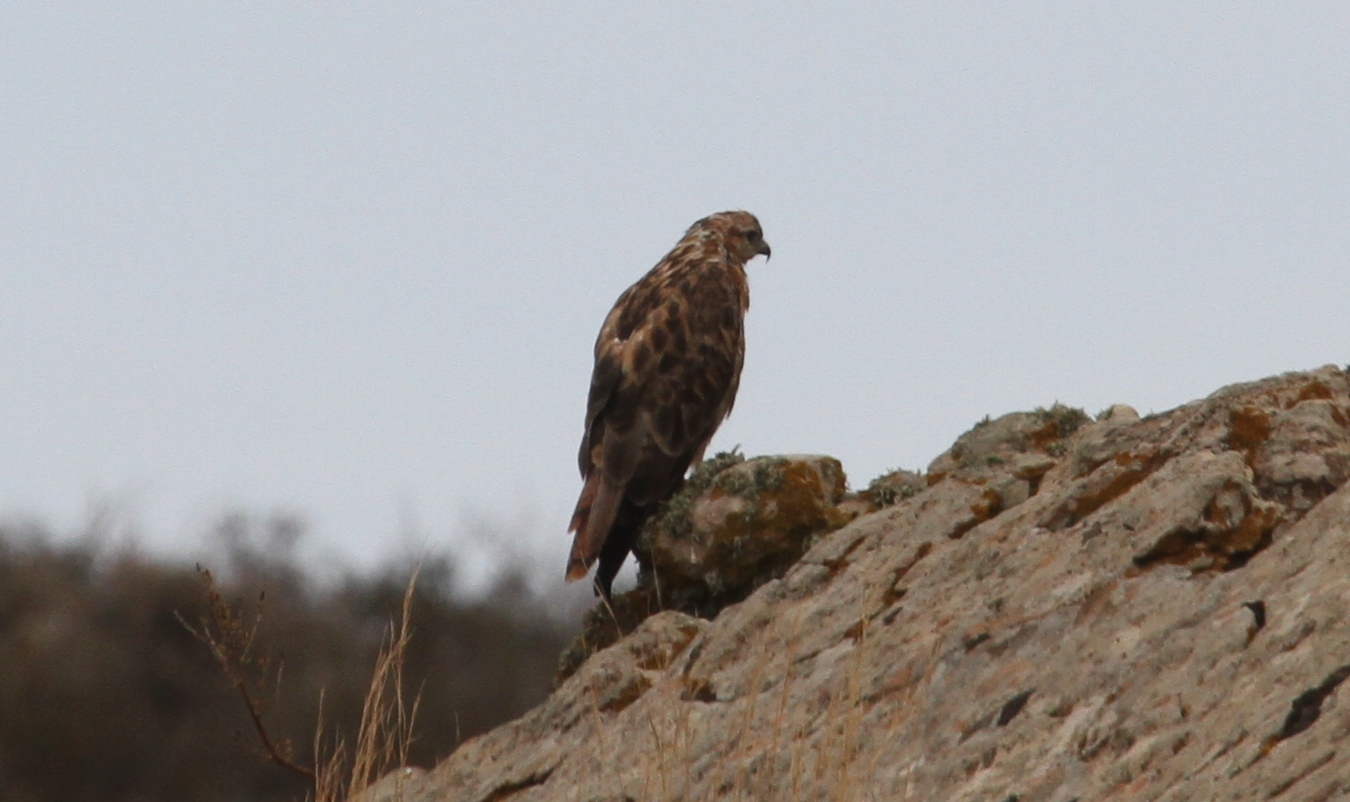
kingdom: Animalia
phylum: Chordata
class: Aves
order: Accipitriformes
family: Accipitridae
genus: Buteo
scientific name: Buteo rufinus
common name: Long-legged buzzard
